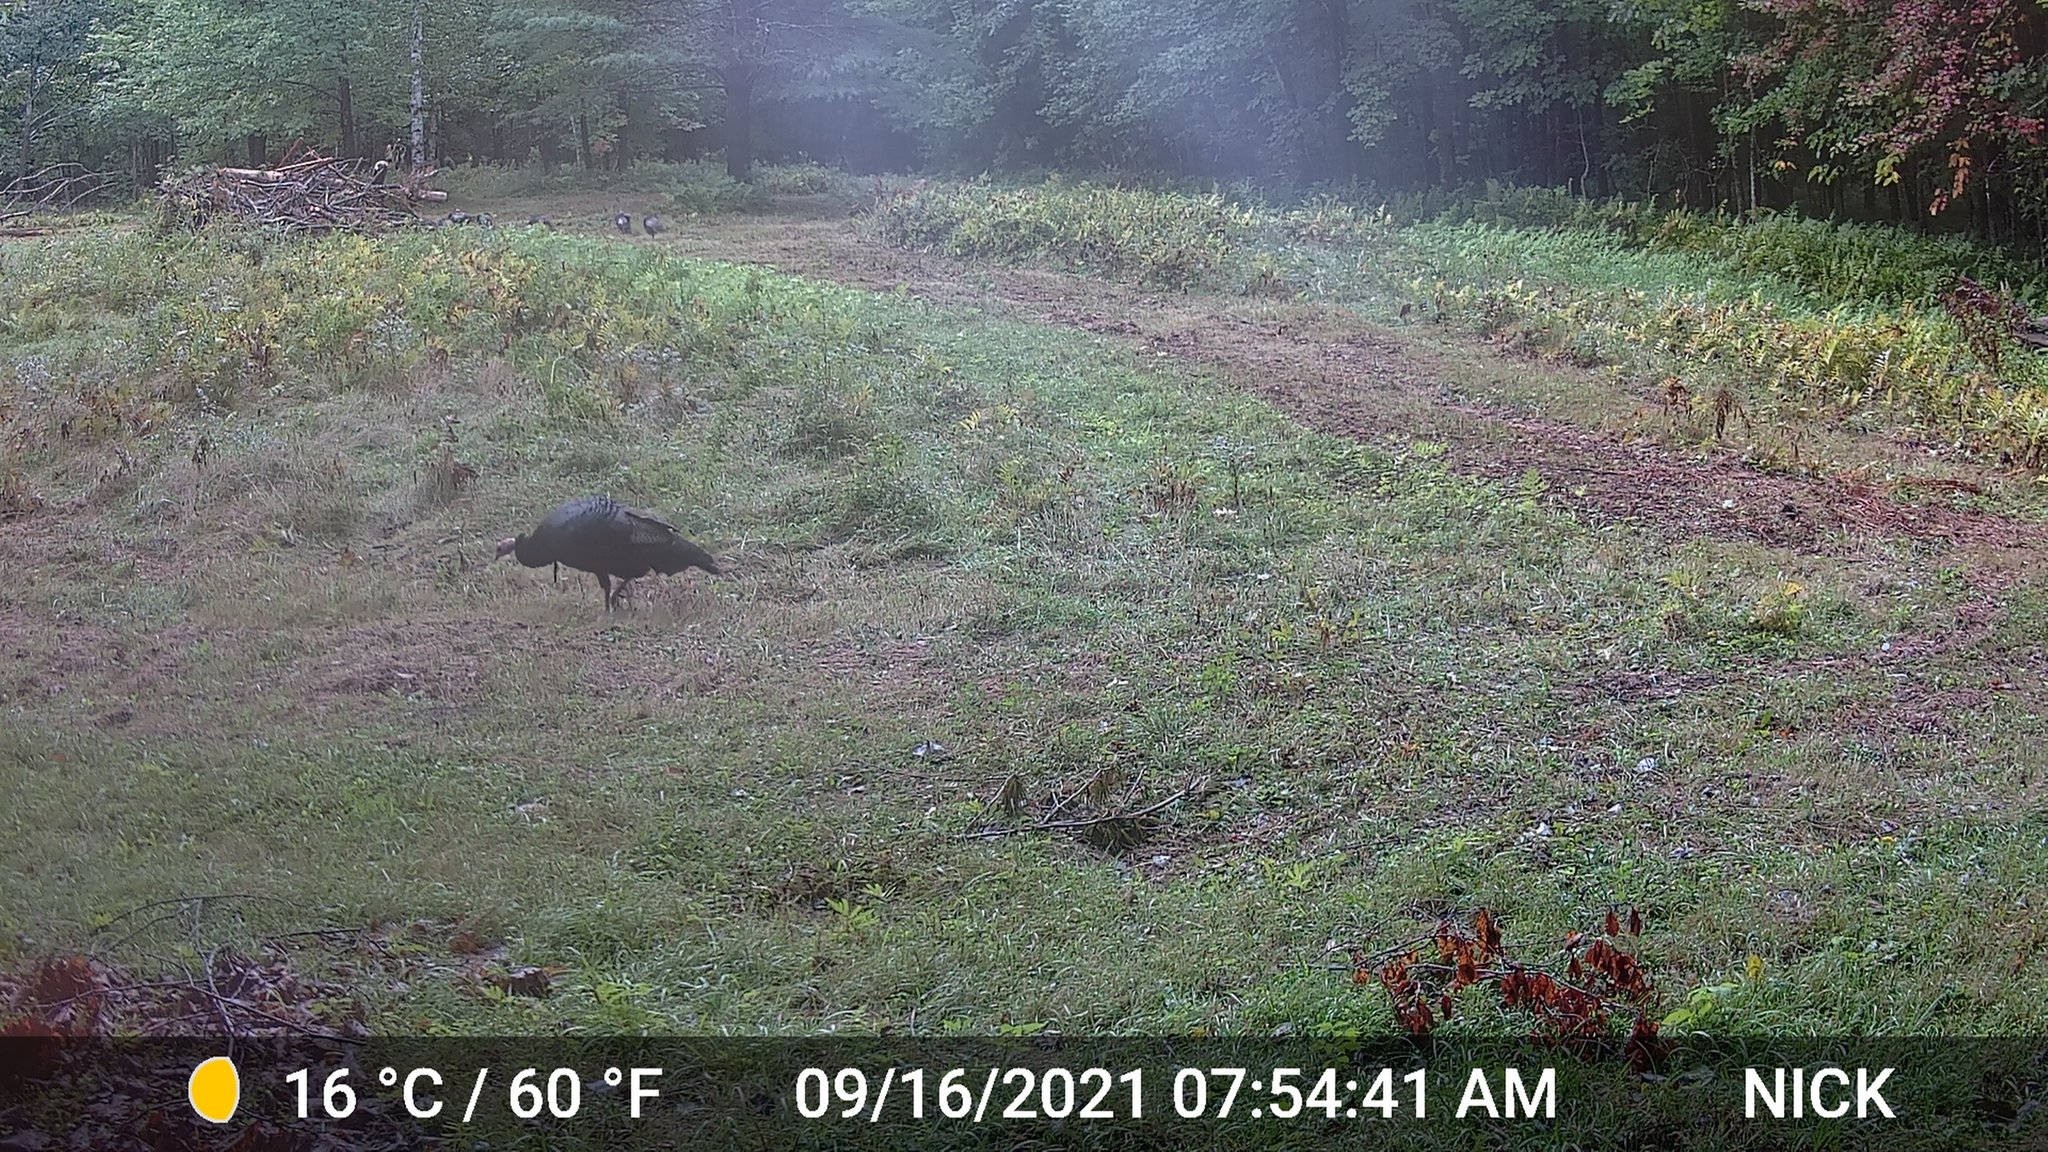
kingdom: Animalia
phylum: Chordata
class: Aves
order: Galliformes
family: Phasianidae
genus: Meleagris
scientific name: Meleagris gallopavo
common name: Wild turkey
